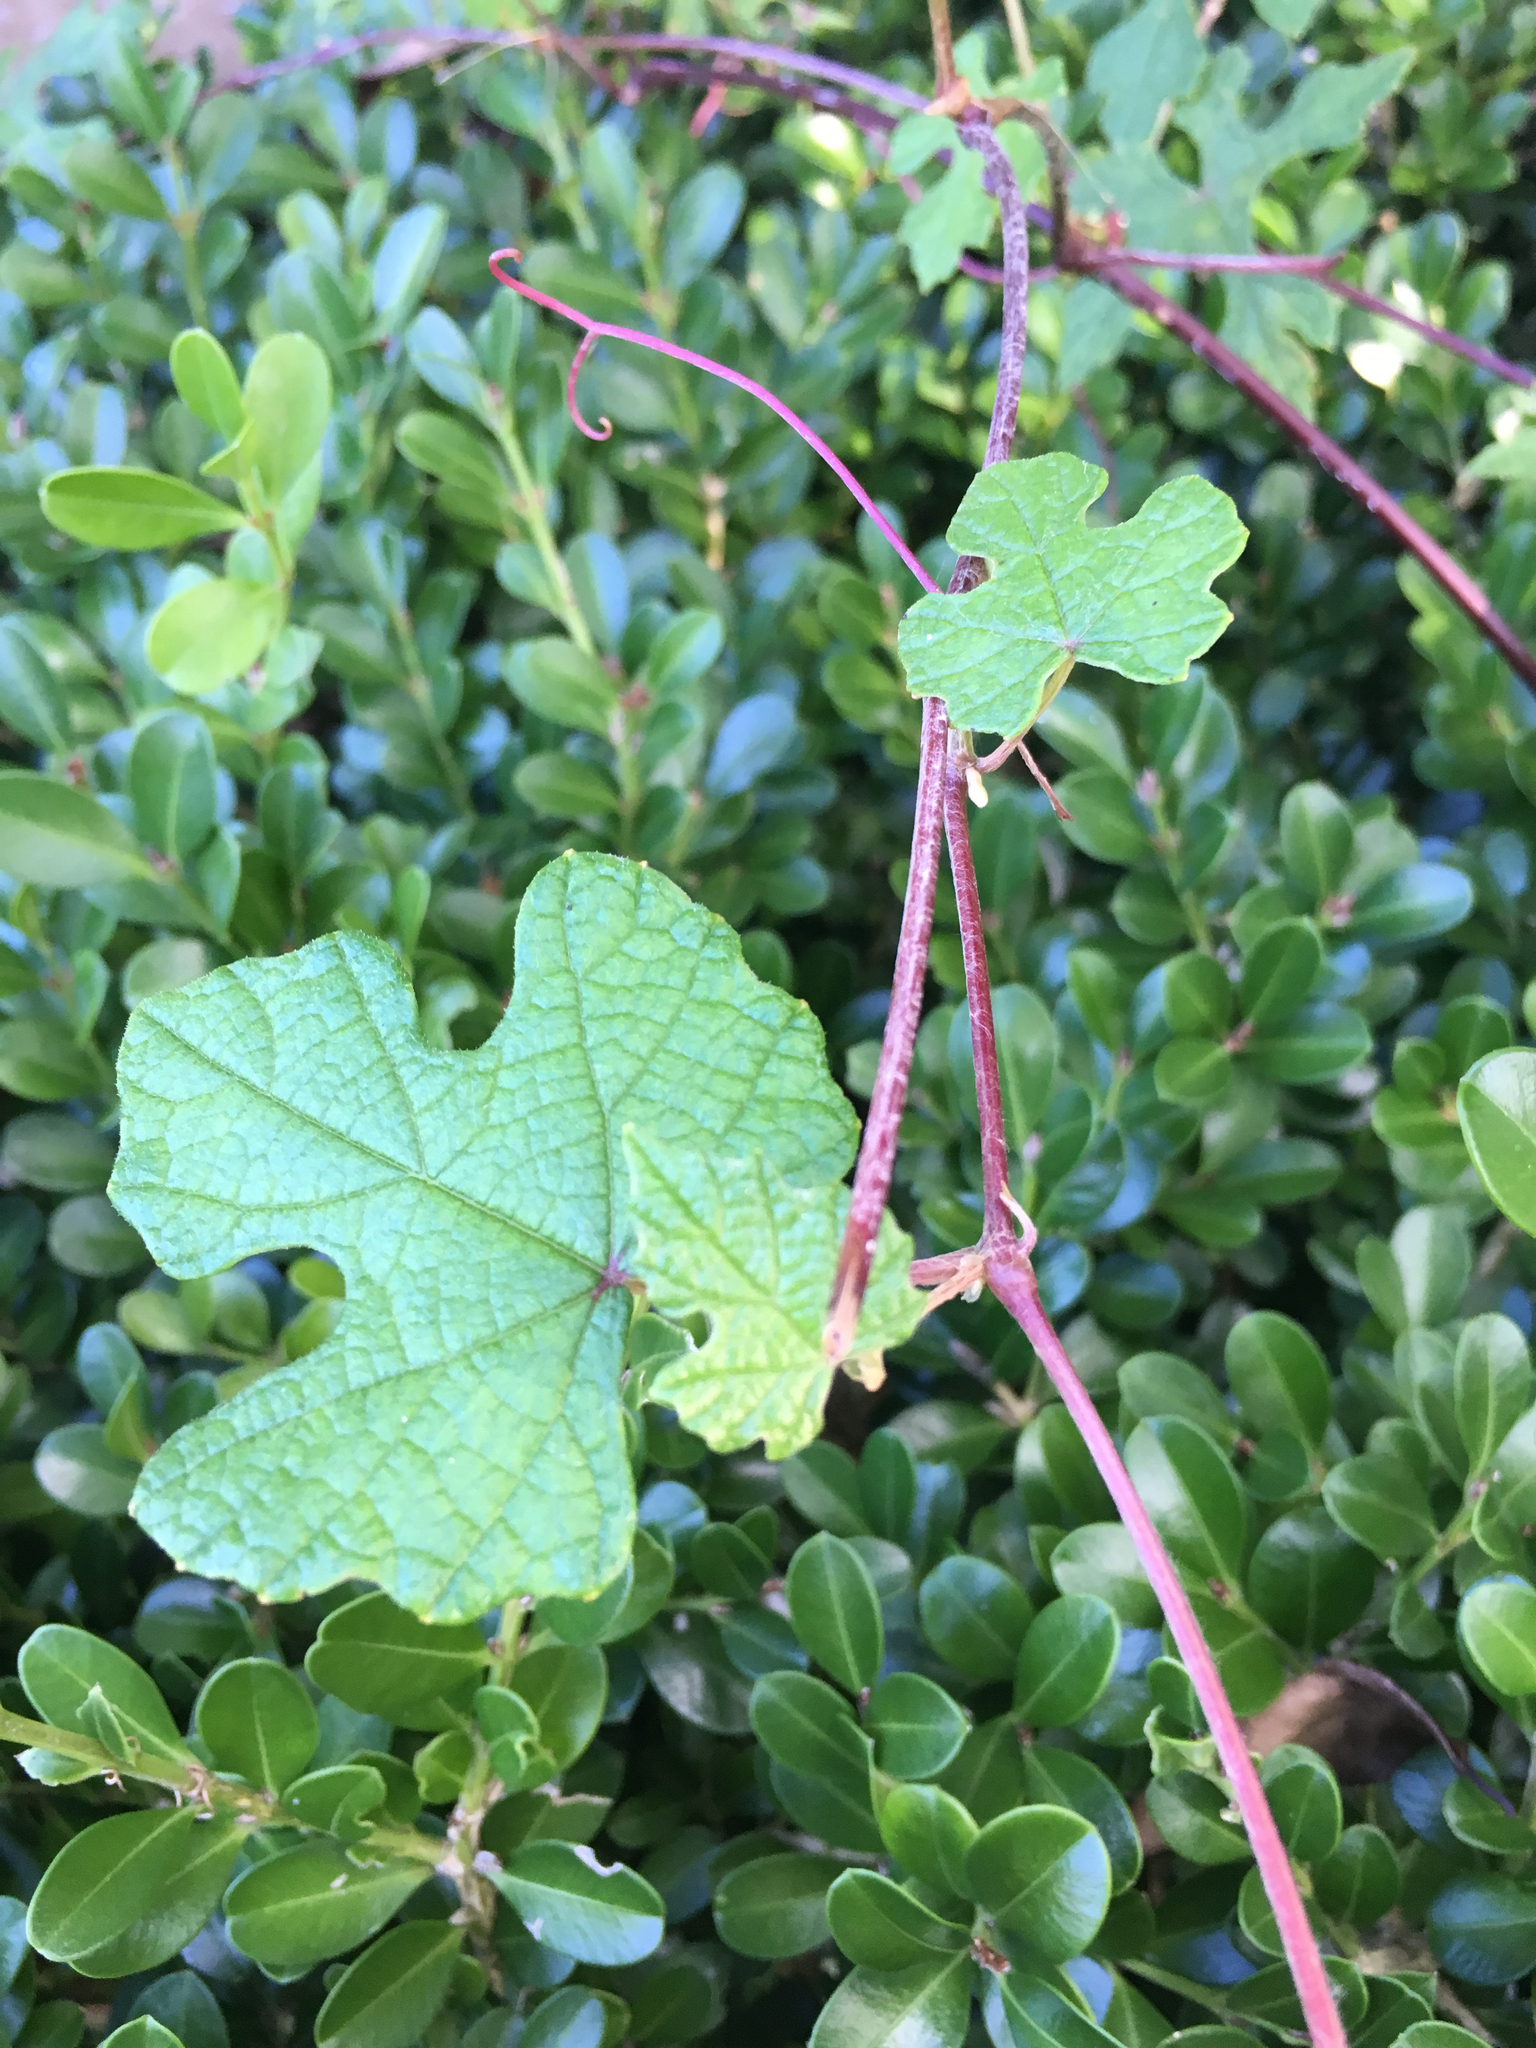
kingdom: Plantae
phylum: Tracheophyta
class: Magnoliopsida
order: Vitales
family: Vitaceae
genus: Vitis
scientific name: Vitis mustangensis
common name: Mustang grape
